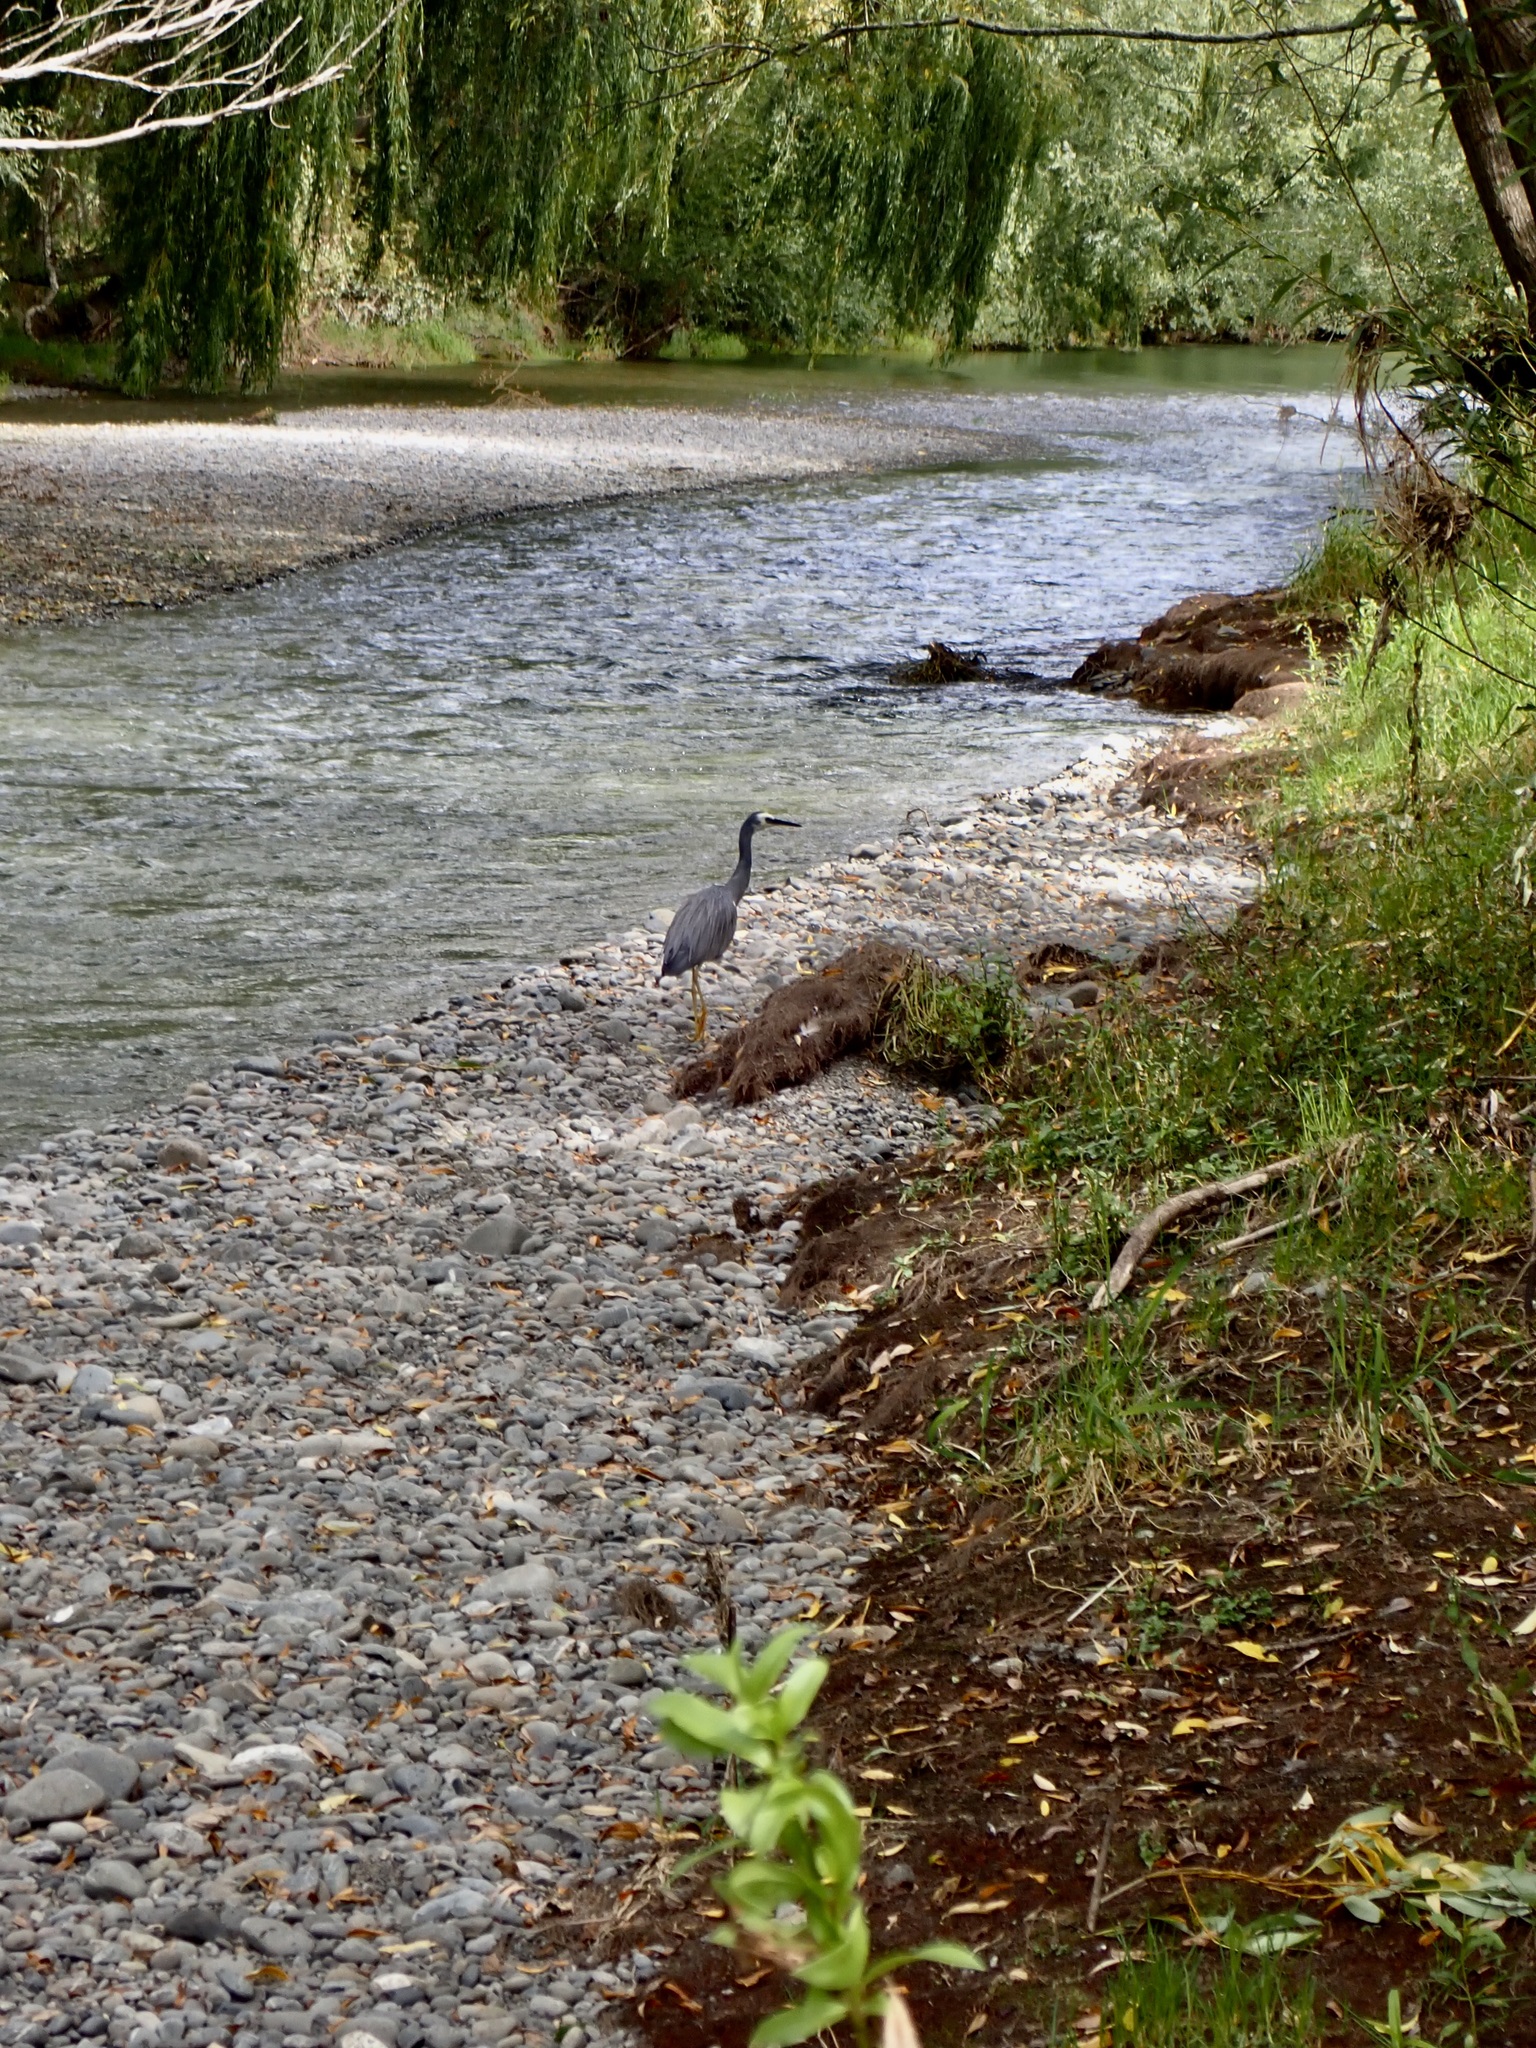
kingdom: Animalia
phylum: Chordata
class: Aves
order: Pelecaniformes
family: Ardeidae
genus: Egretta
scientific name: Egretta novaehollandiae
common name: White-faced heron
